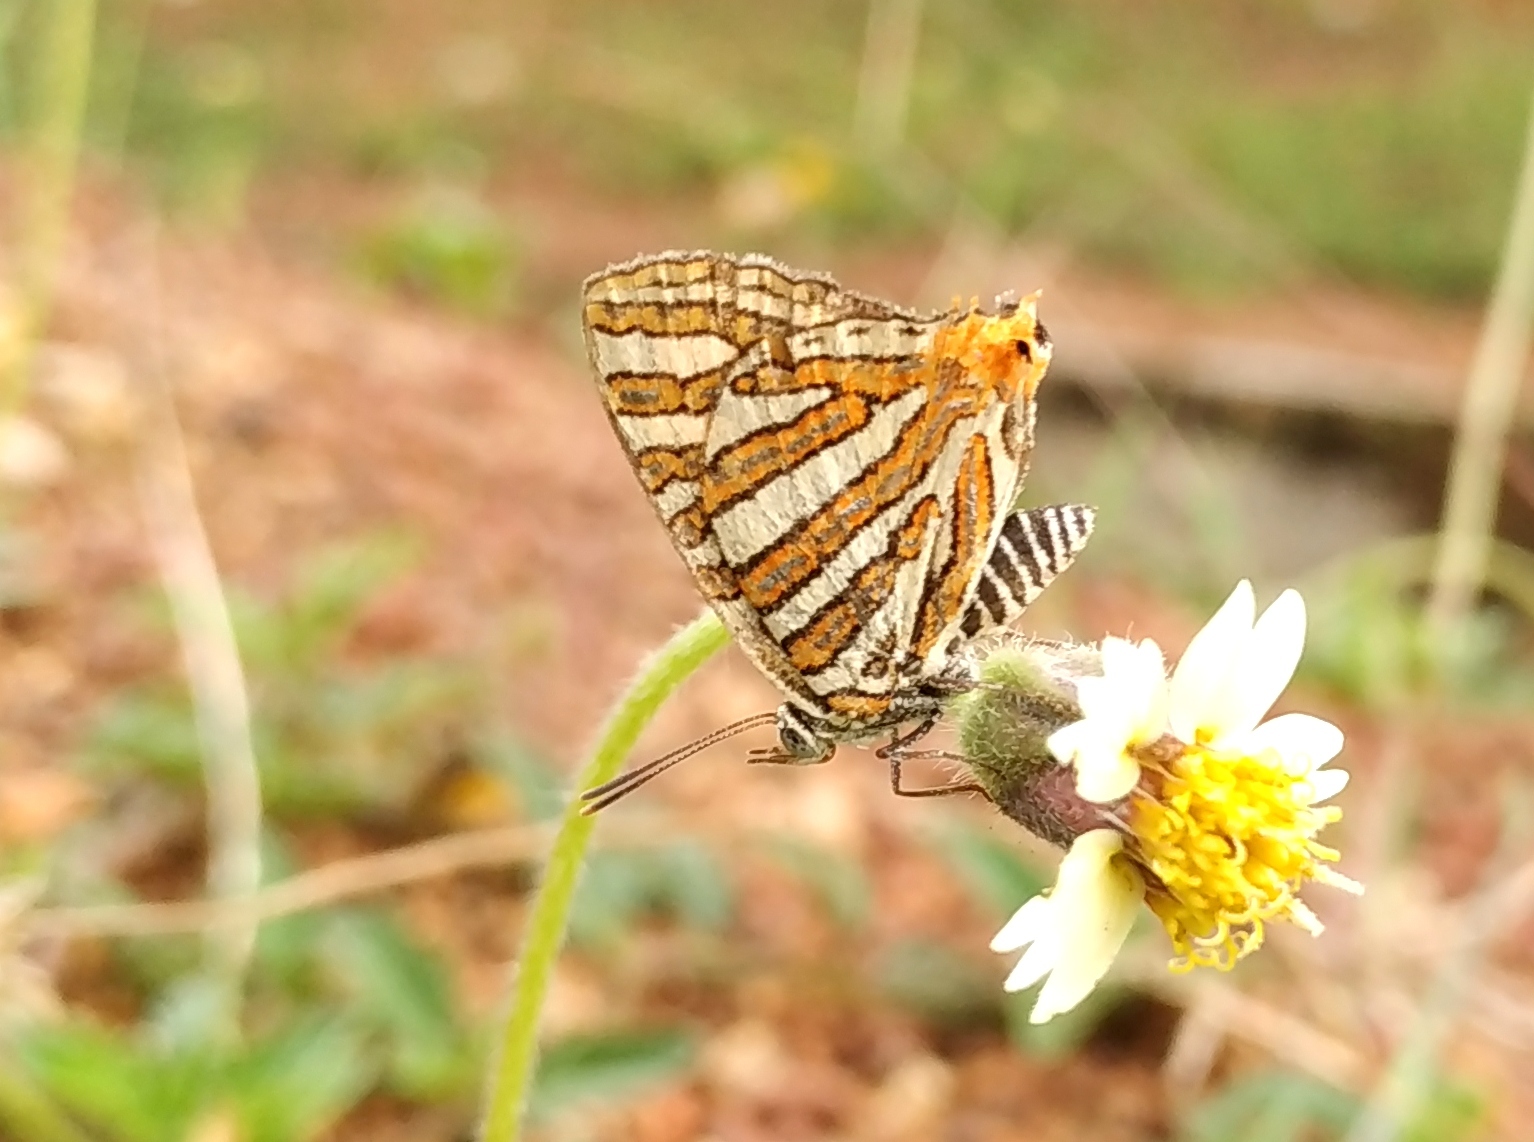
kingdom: Animalia
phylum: Arthropoda
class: Insecta
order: Lepidoptera
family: Lycaenidae
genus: Cigaritis
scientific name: Cigaritis vulcanus
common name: Common silverline
